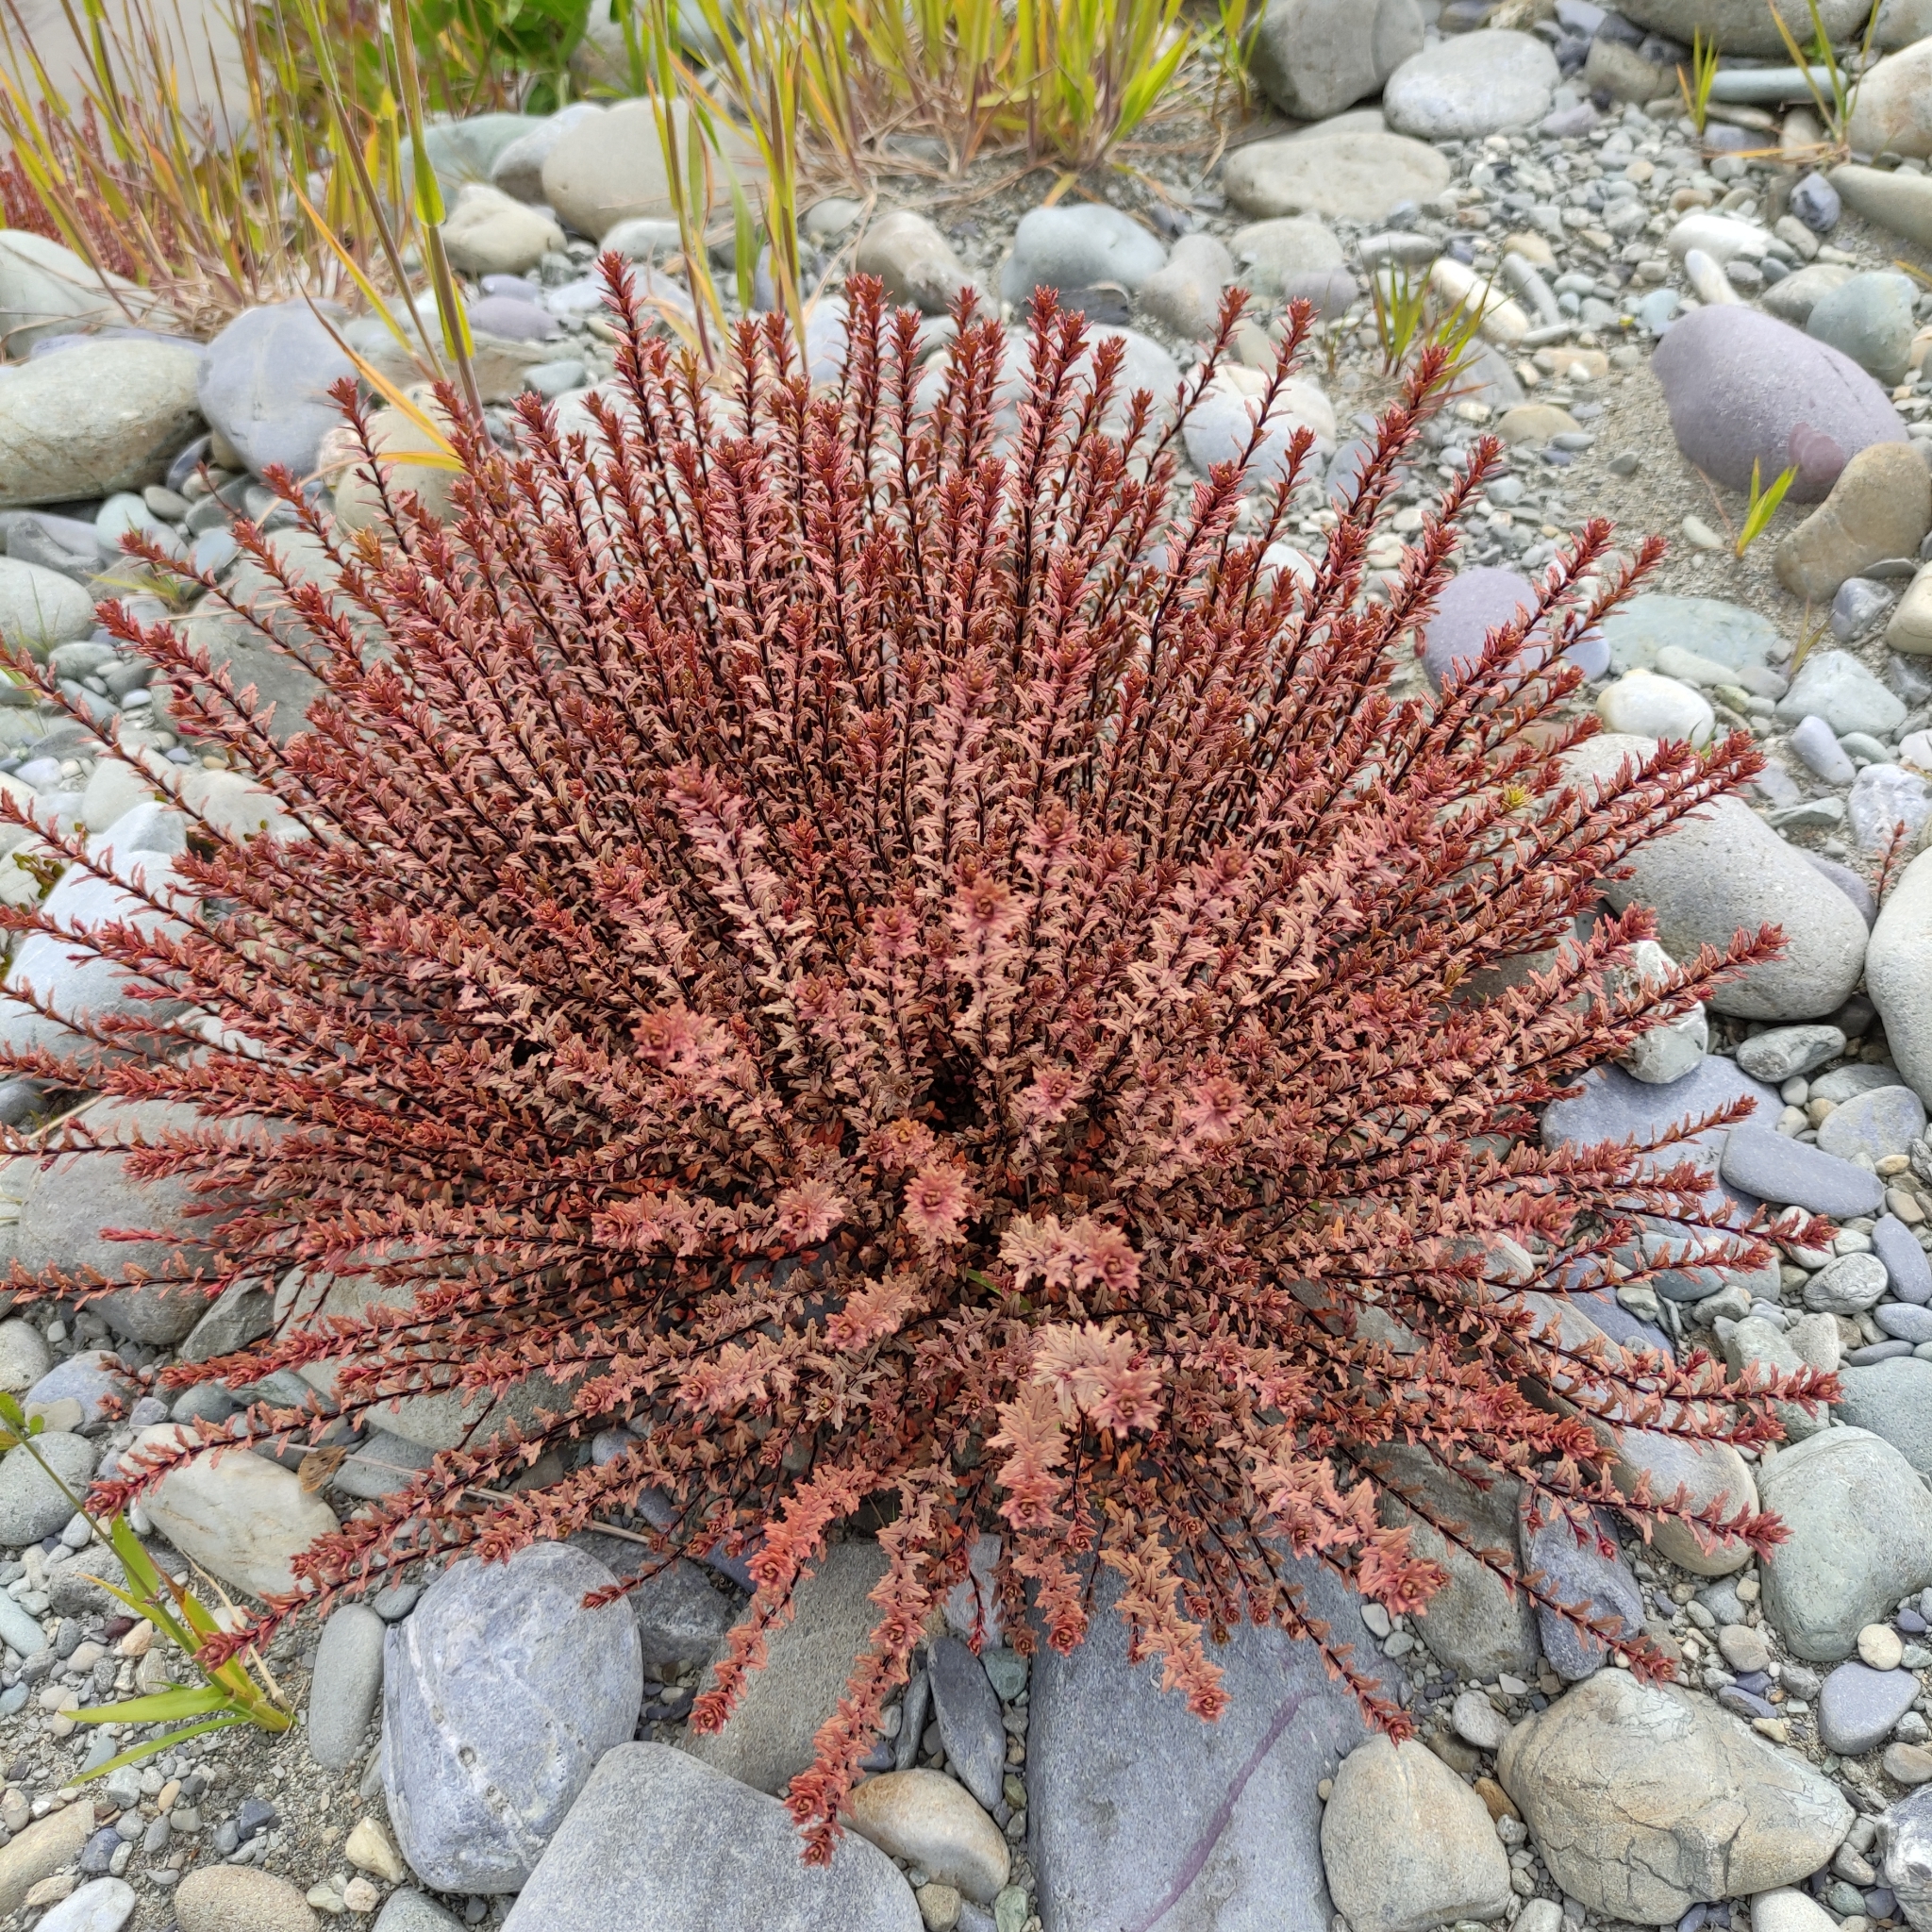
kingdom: Plantae
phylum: Tracheophyta
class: Magnoliopsida
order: Myrtales
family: Onagraceae
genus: Epilobium
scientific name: Epilobium melanocaulon
